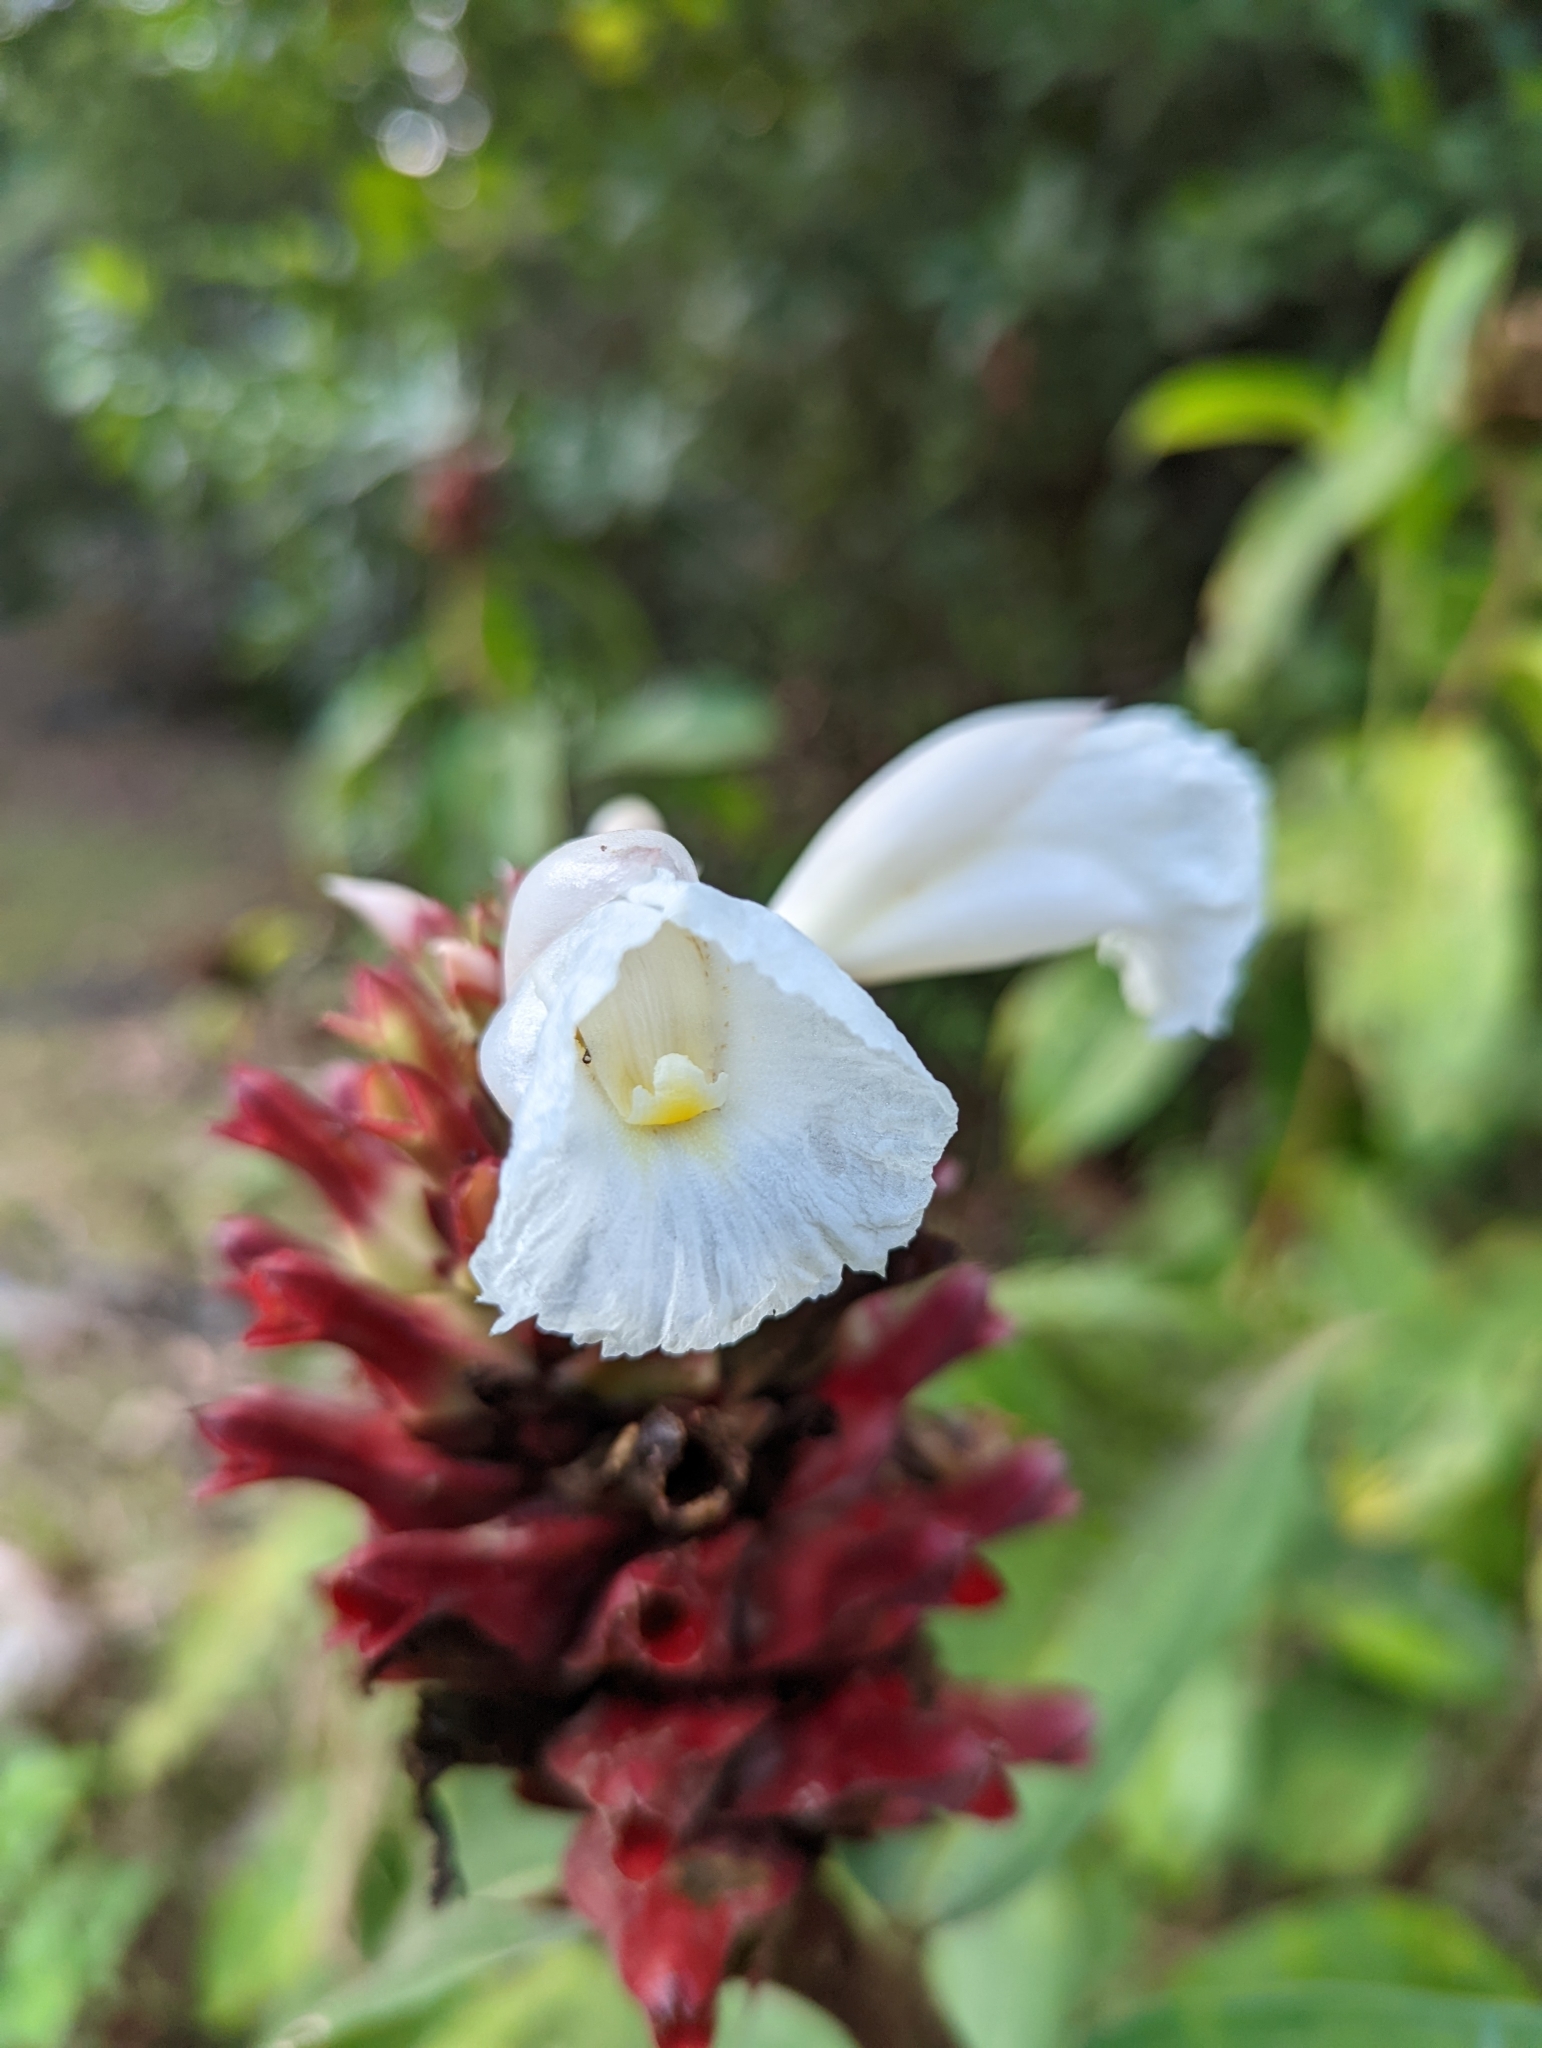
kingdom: Plantae
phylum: Tracheophyta
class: Liliopsida
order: Zingiberales
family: Costaceae
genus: Hellenia
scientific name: Hellenia speciosa
